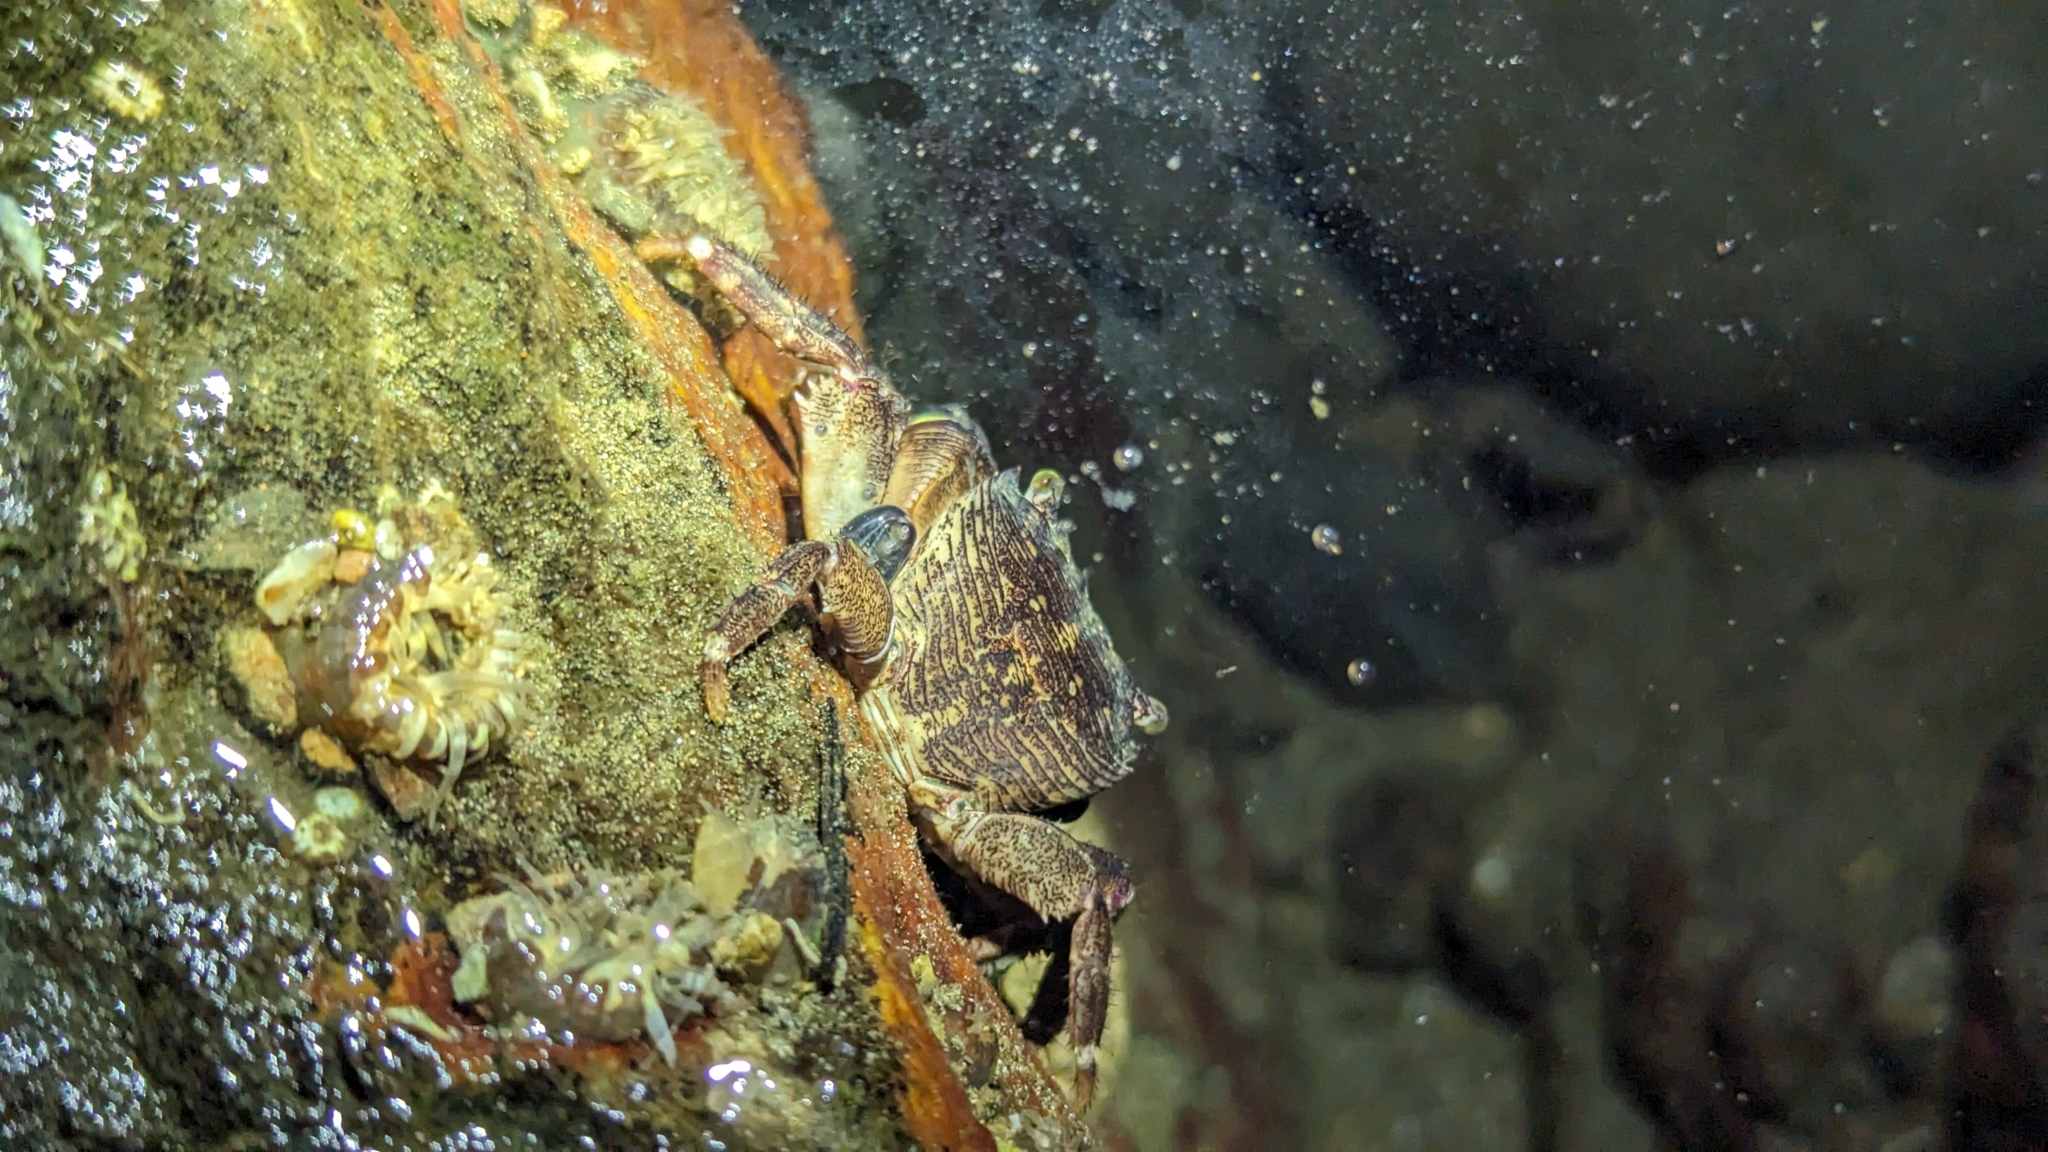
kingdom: Animalia
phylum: Arthropoda
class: Malacostraca
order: Decapoda
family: Grapsidae
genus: Pachygrapsus
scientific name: Pachygrapsus socius
